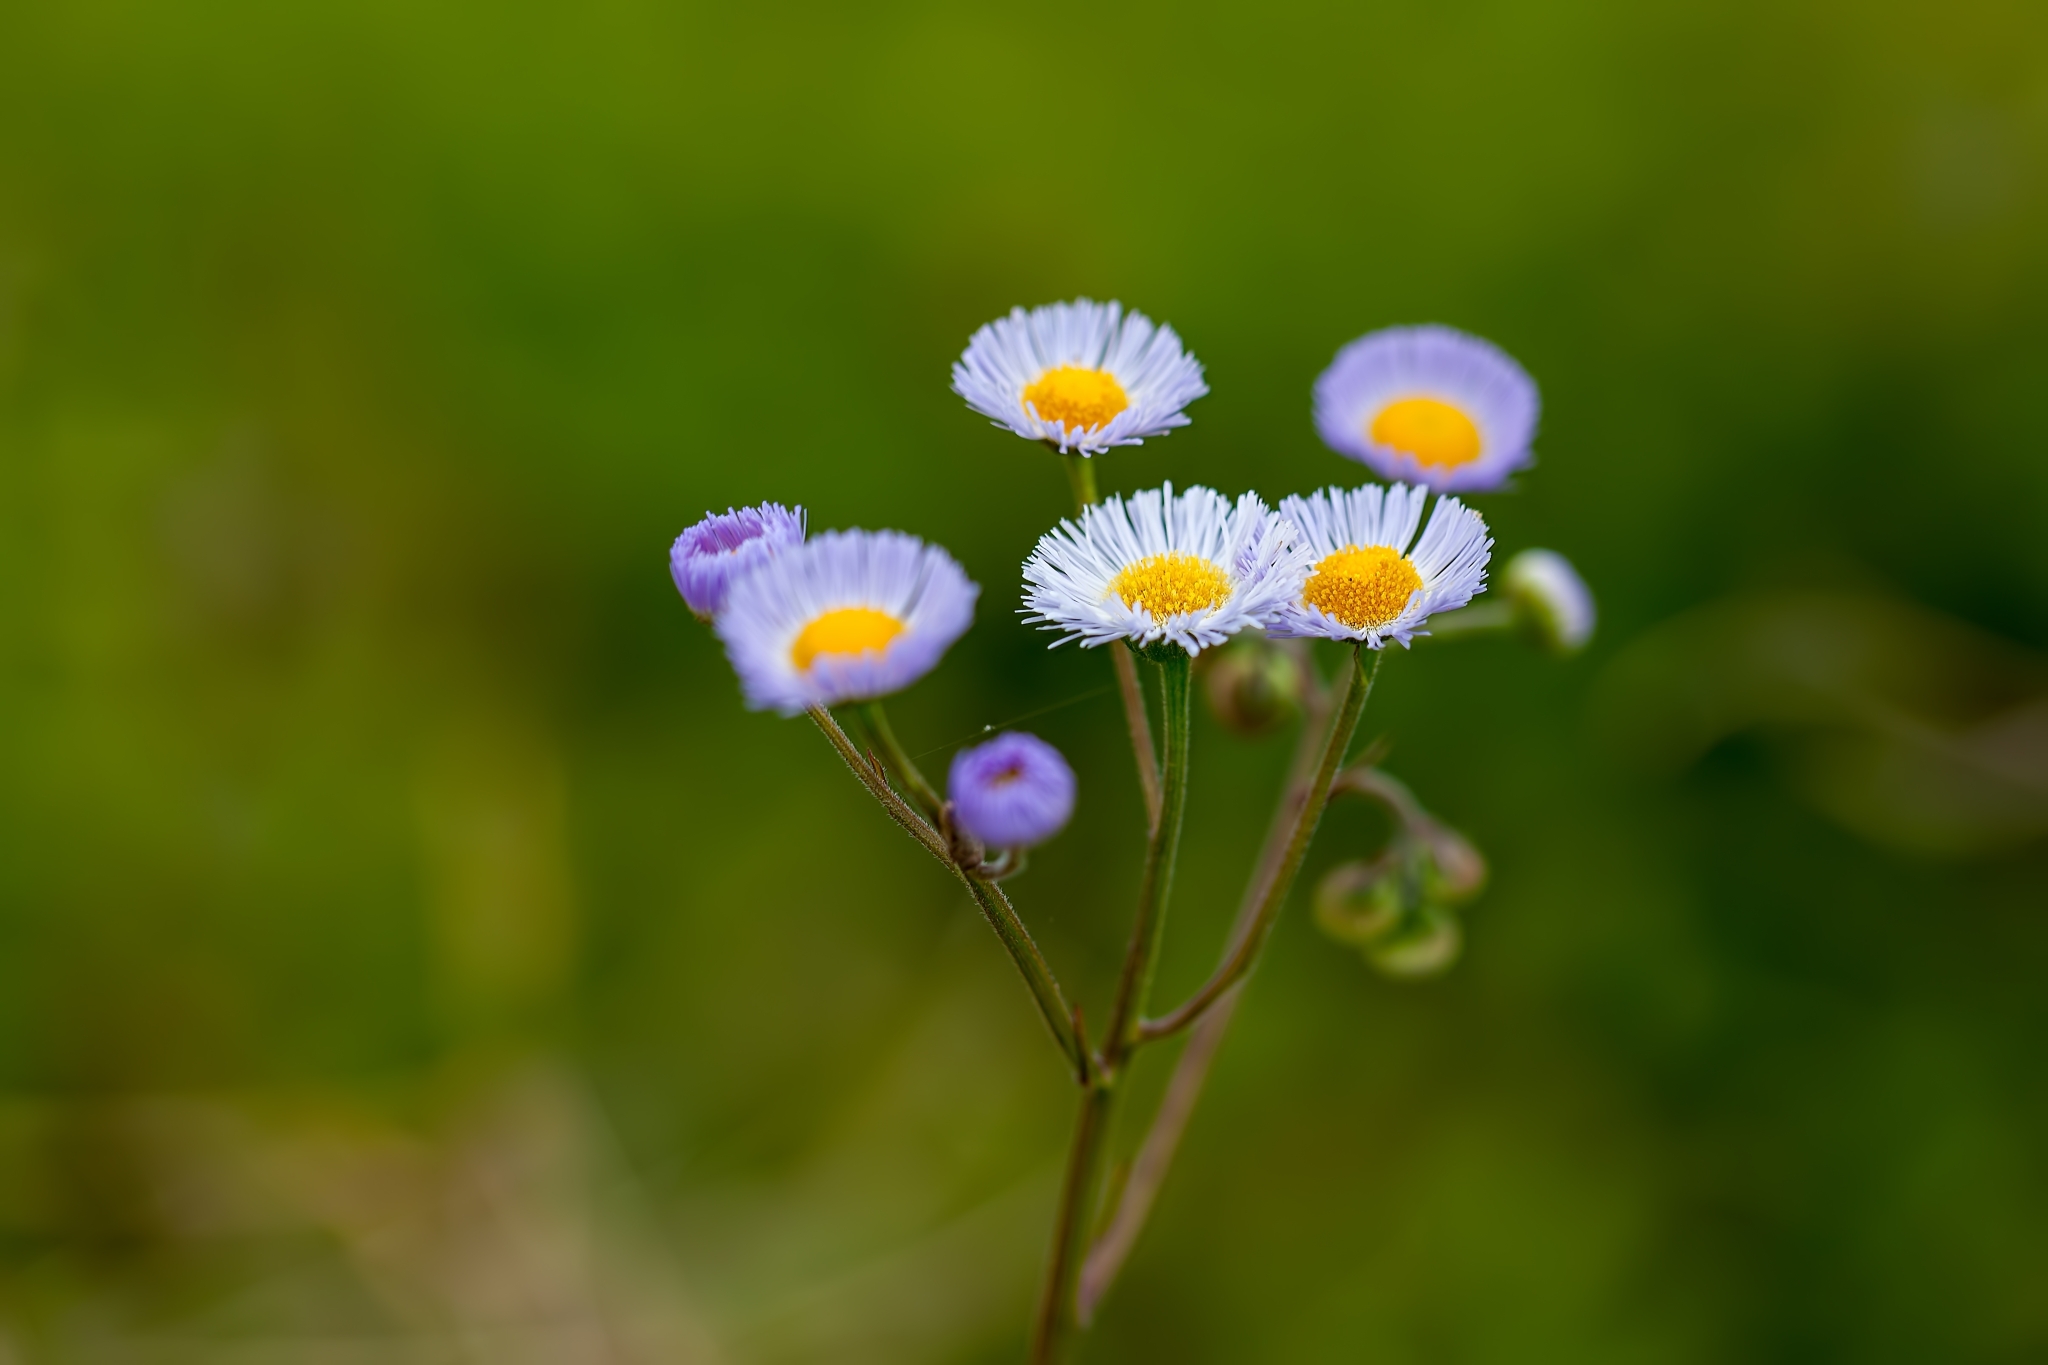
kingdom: Plantae
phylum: Tracheophyta
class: Magnoliopsida
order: Asterales
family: Asteraceae
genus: Erigeron
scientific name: Erigeron quercifolius
